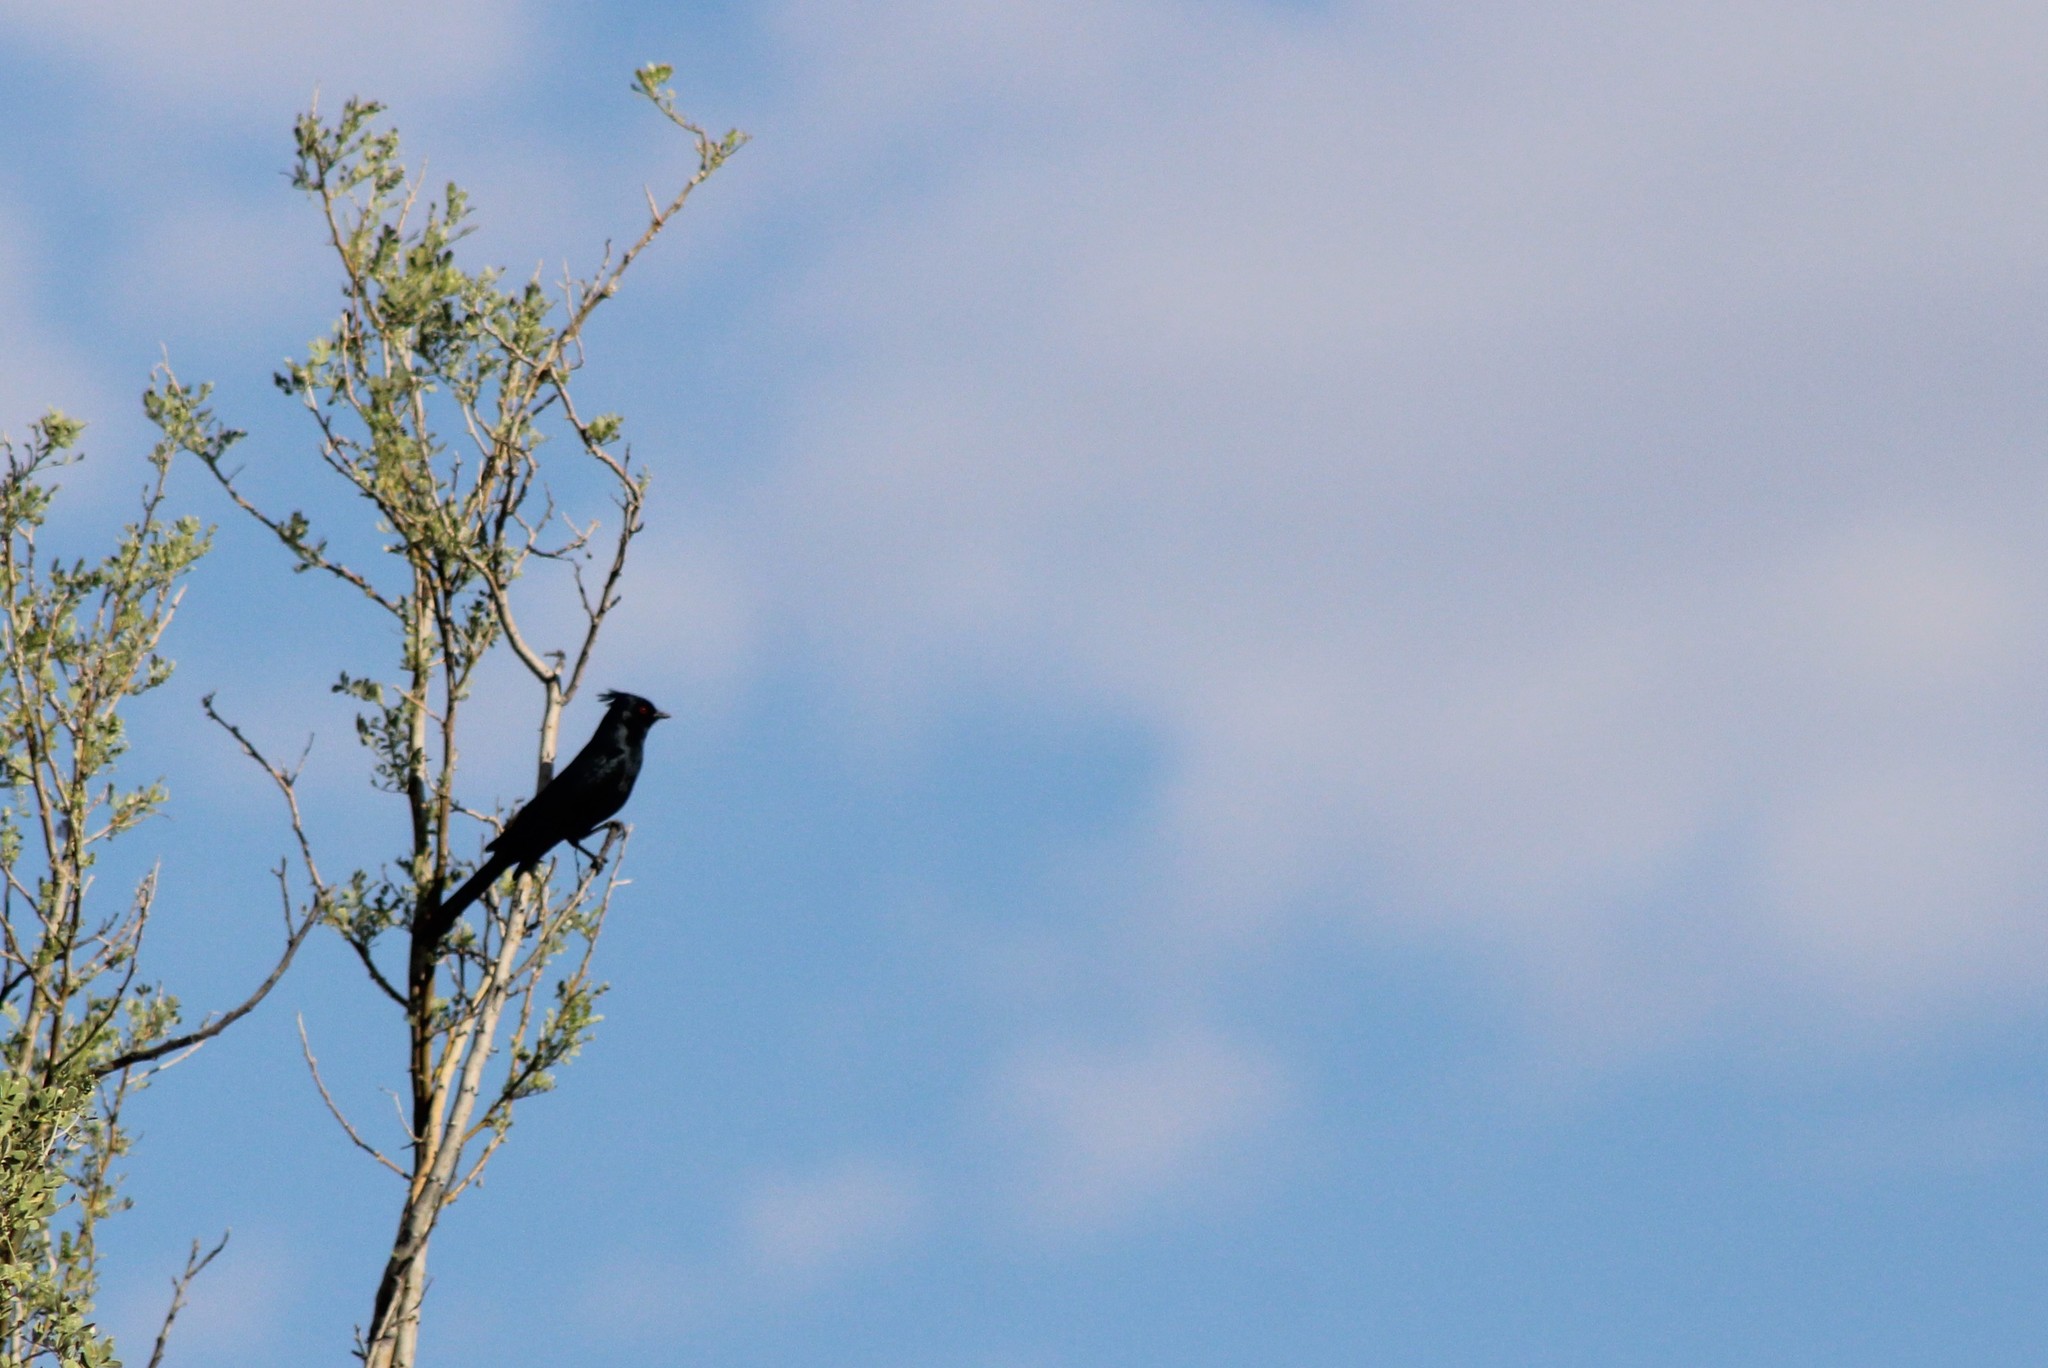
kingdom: Animalia
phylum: Chordata
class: Aves
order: Passeriformes
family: Ptilogonatidae
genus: Phainopepla
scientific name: Phainopepla nitens
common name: Phainopepla
